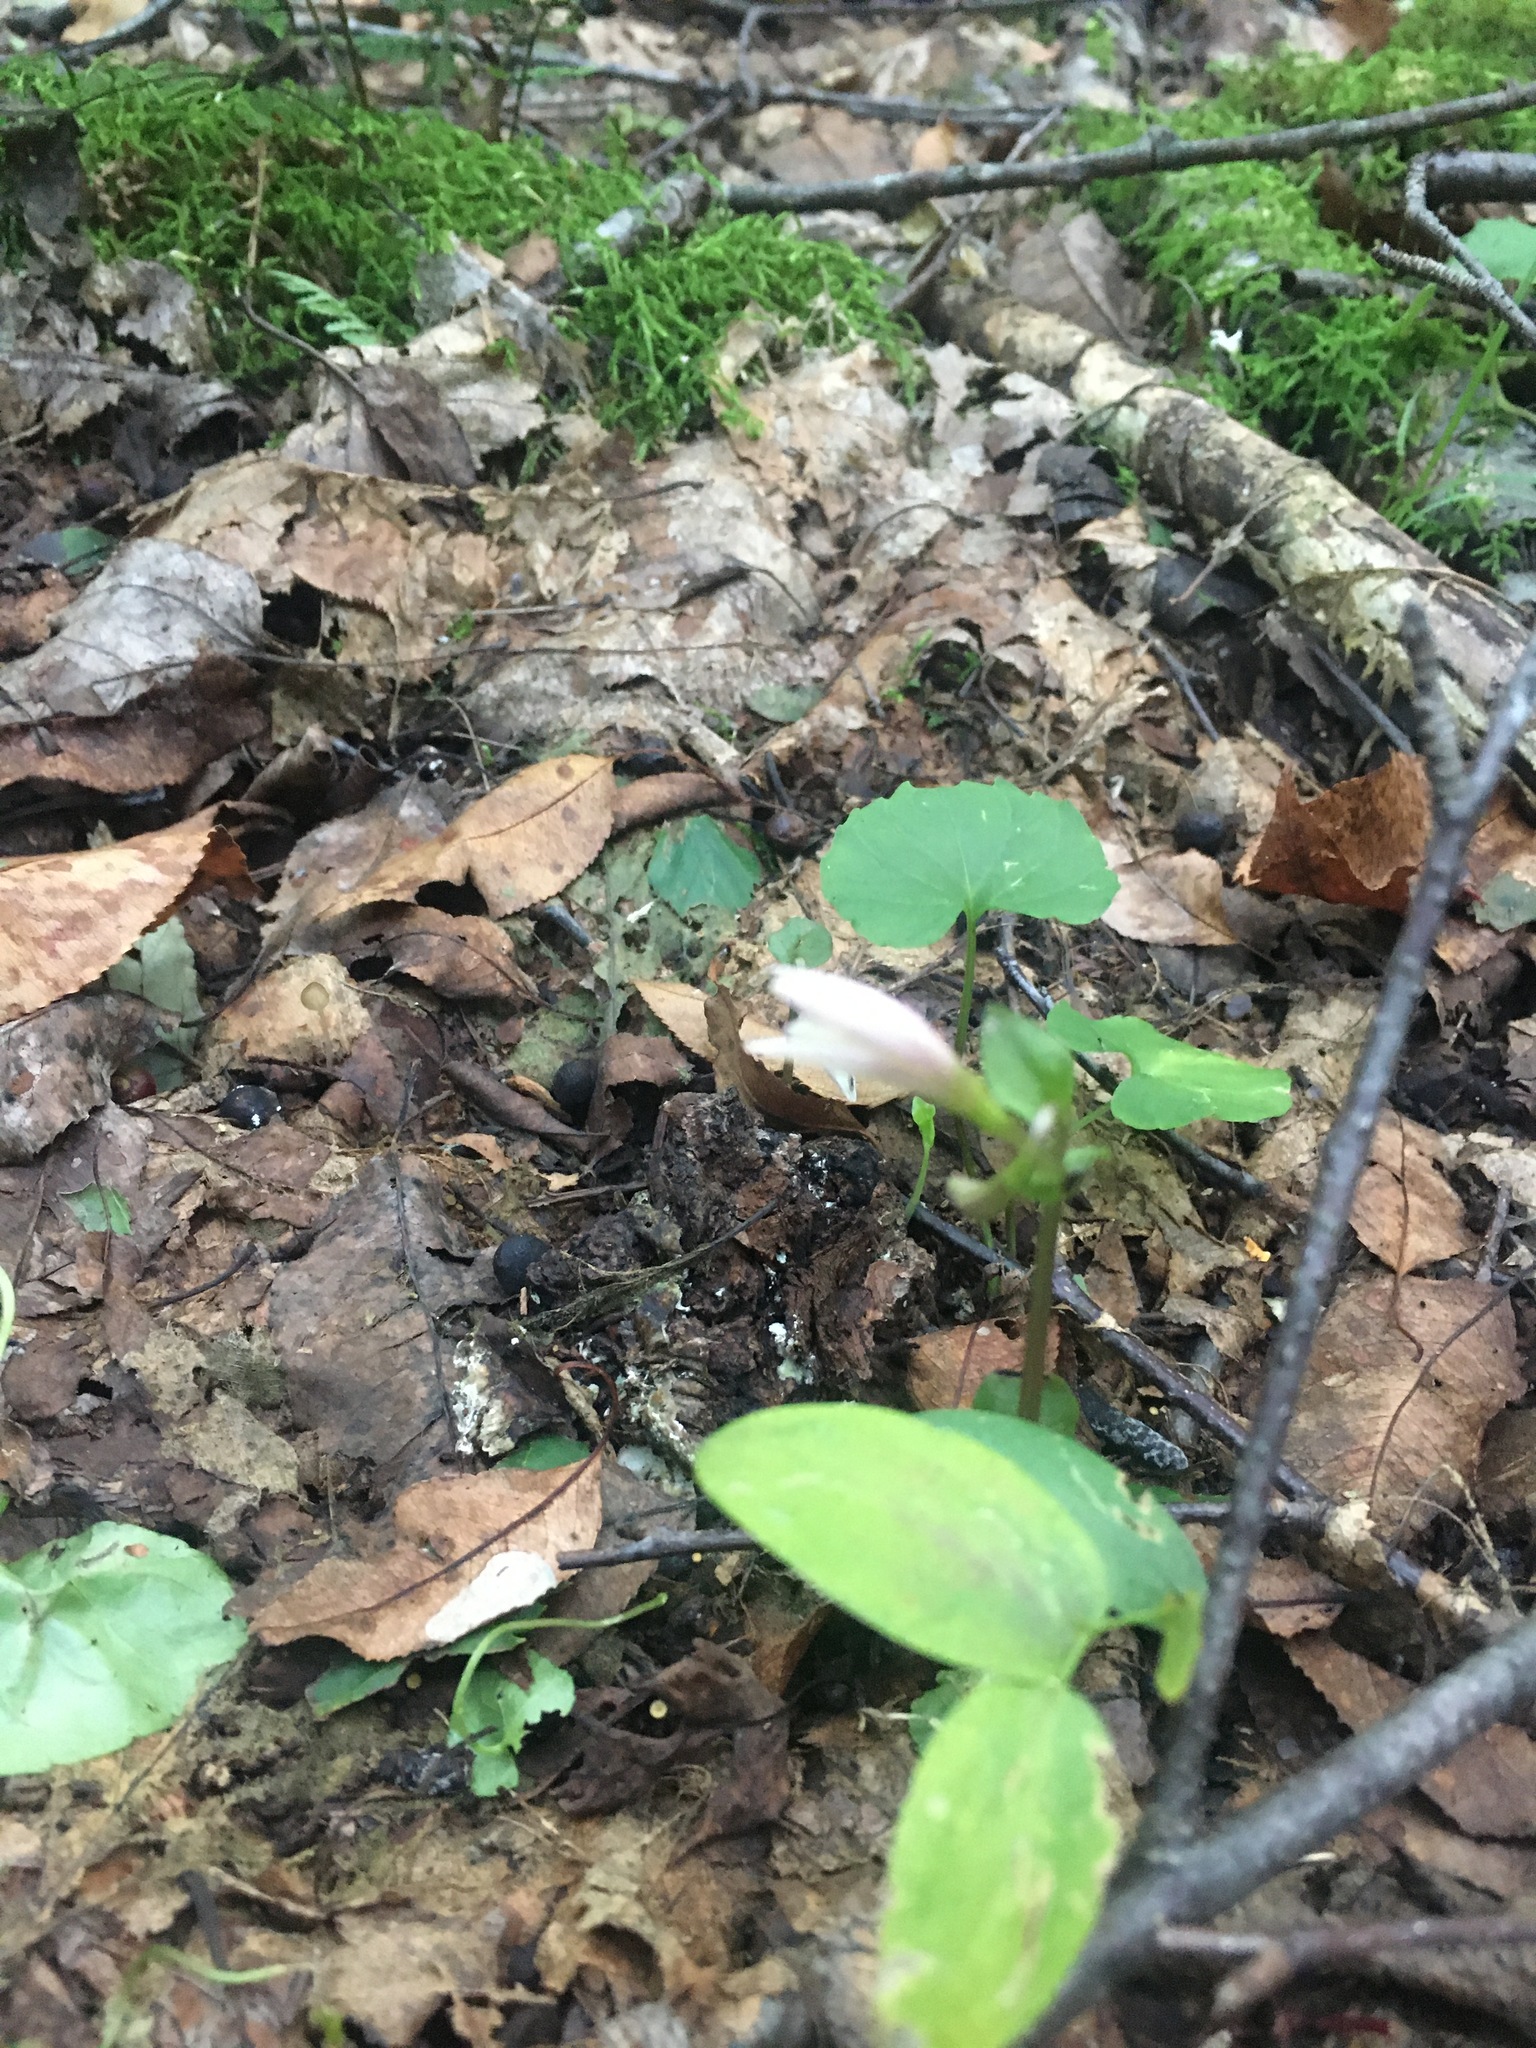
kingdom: Plantae
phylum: Tracheophyta
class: Liliopsida
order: Asparagales
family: Orchidaceae
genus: Triphora
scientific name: Triphora trianthophoros
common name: Three birds orchid
